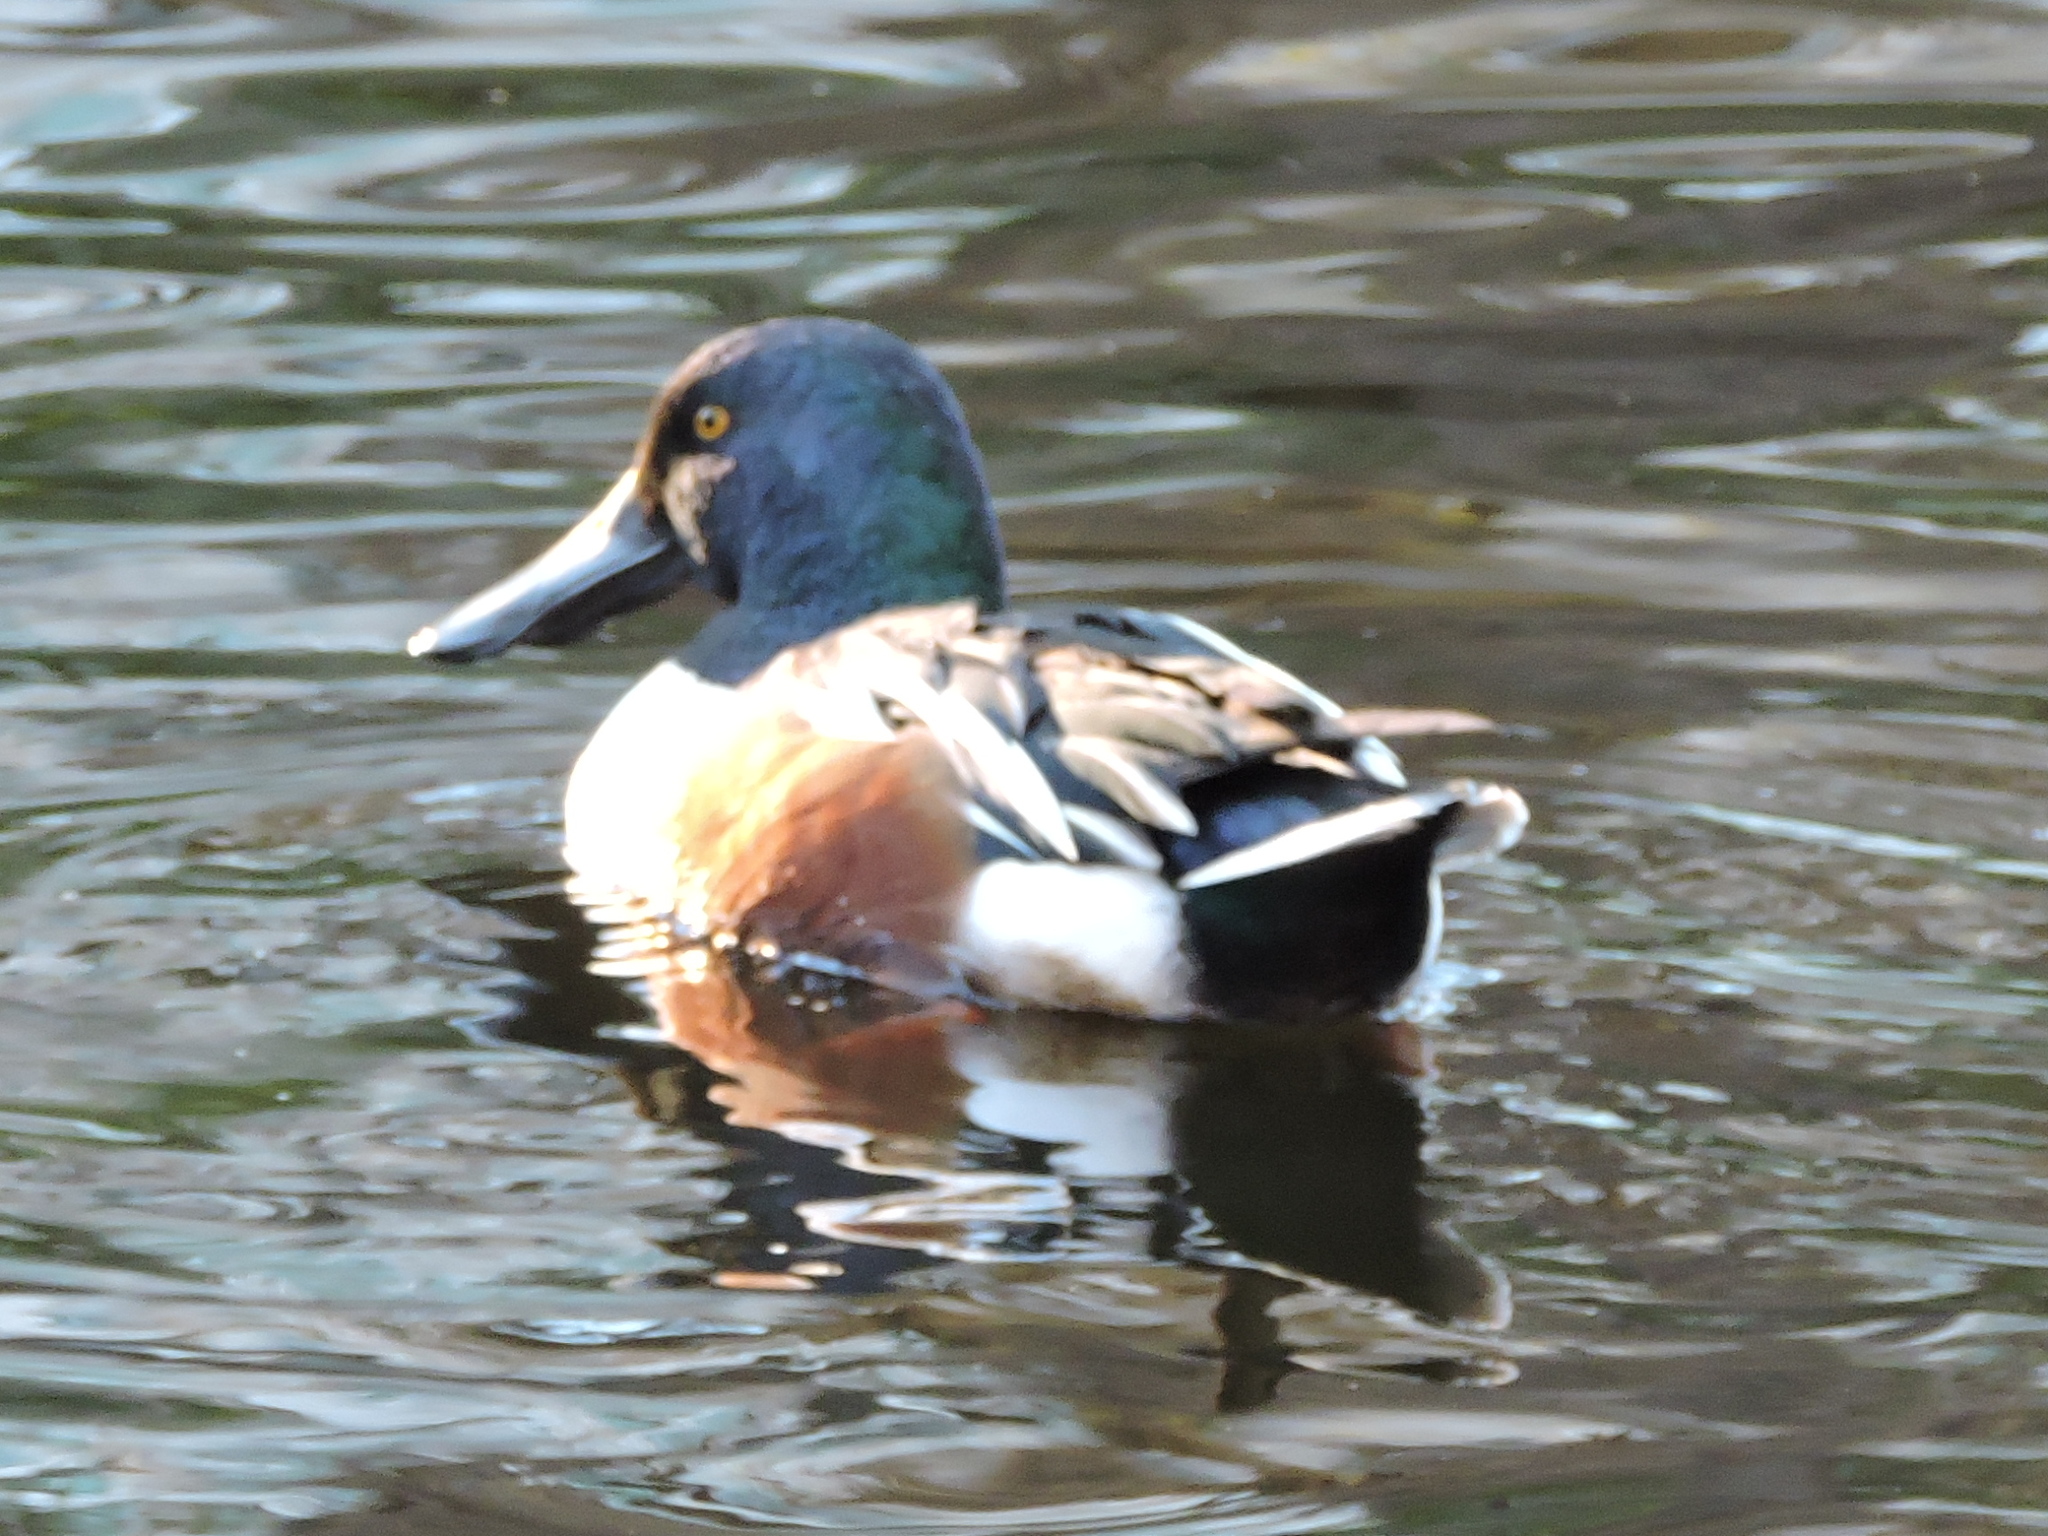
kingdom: Animalia
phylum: Chordata
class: Aves
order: Anseriformes
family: Anatidae
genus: Spatula
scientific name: Spatula clypeata
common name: Northern shoveler
